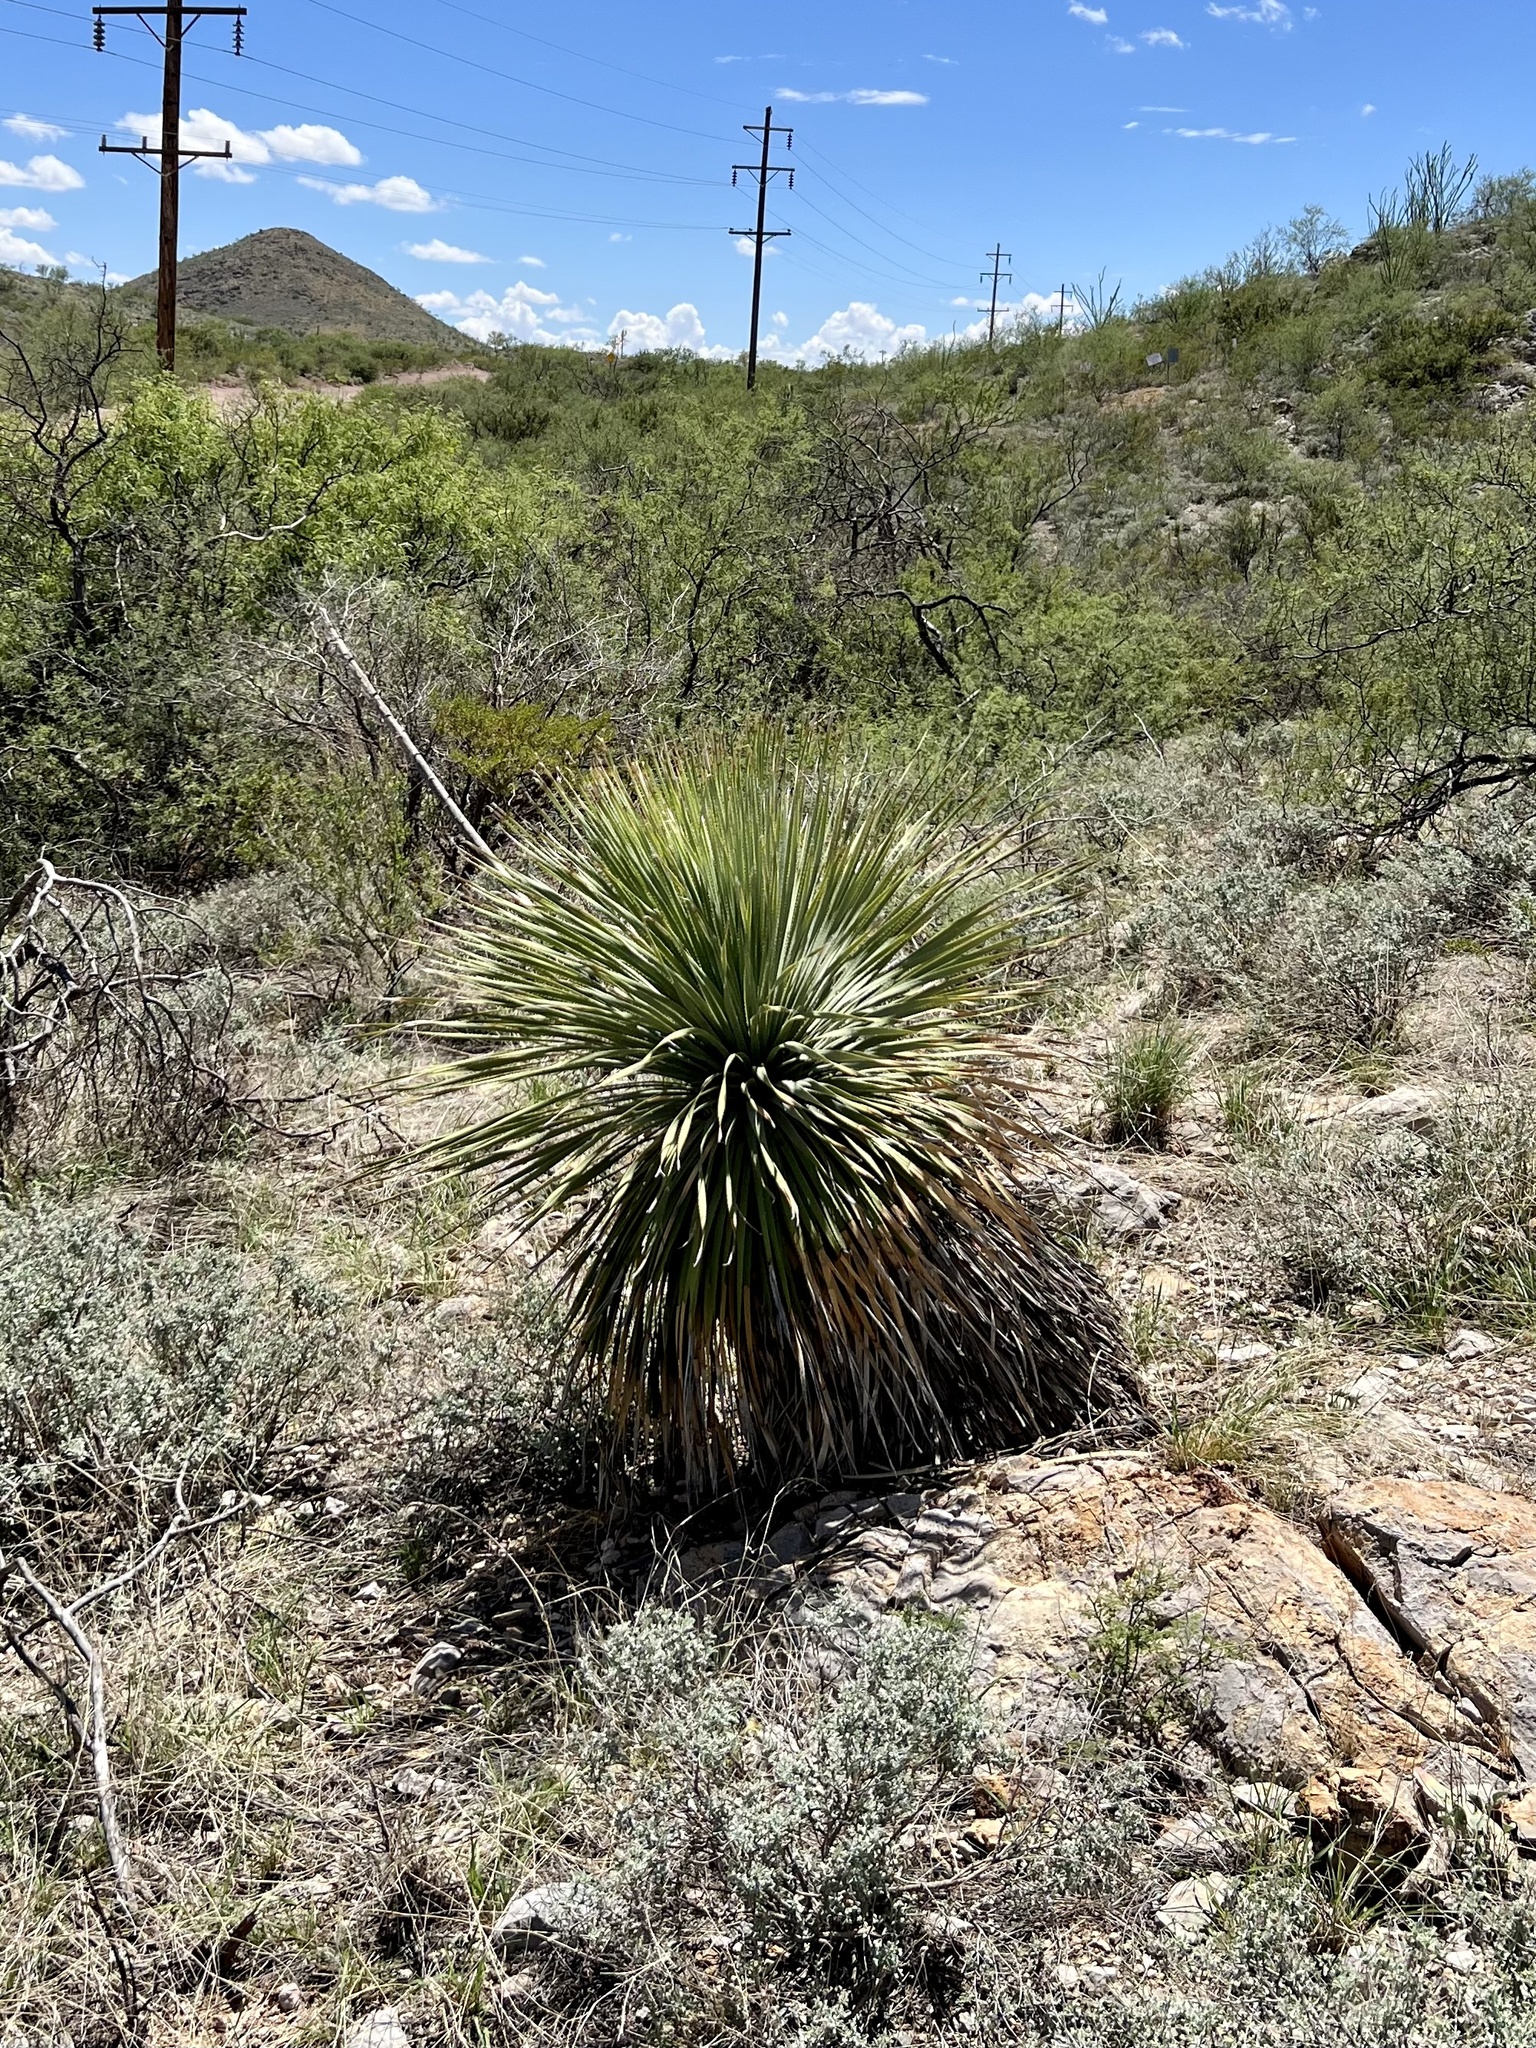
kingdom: Plantae
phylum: Tracheophyta
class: Liliopsida
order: Asparagales
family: Asparagaceae
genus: Dasylirion
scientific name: Dasylirion wheeleri
